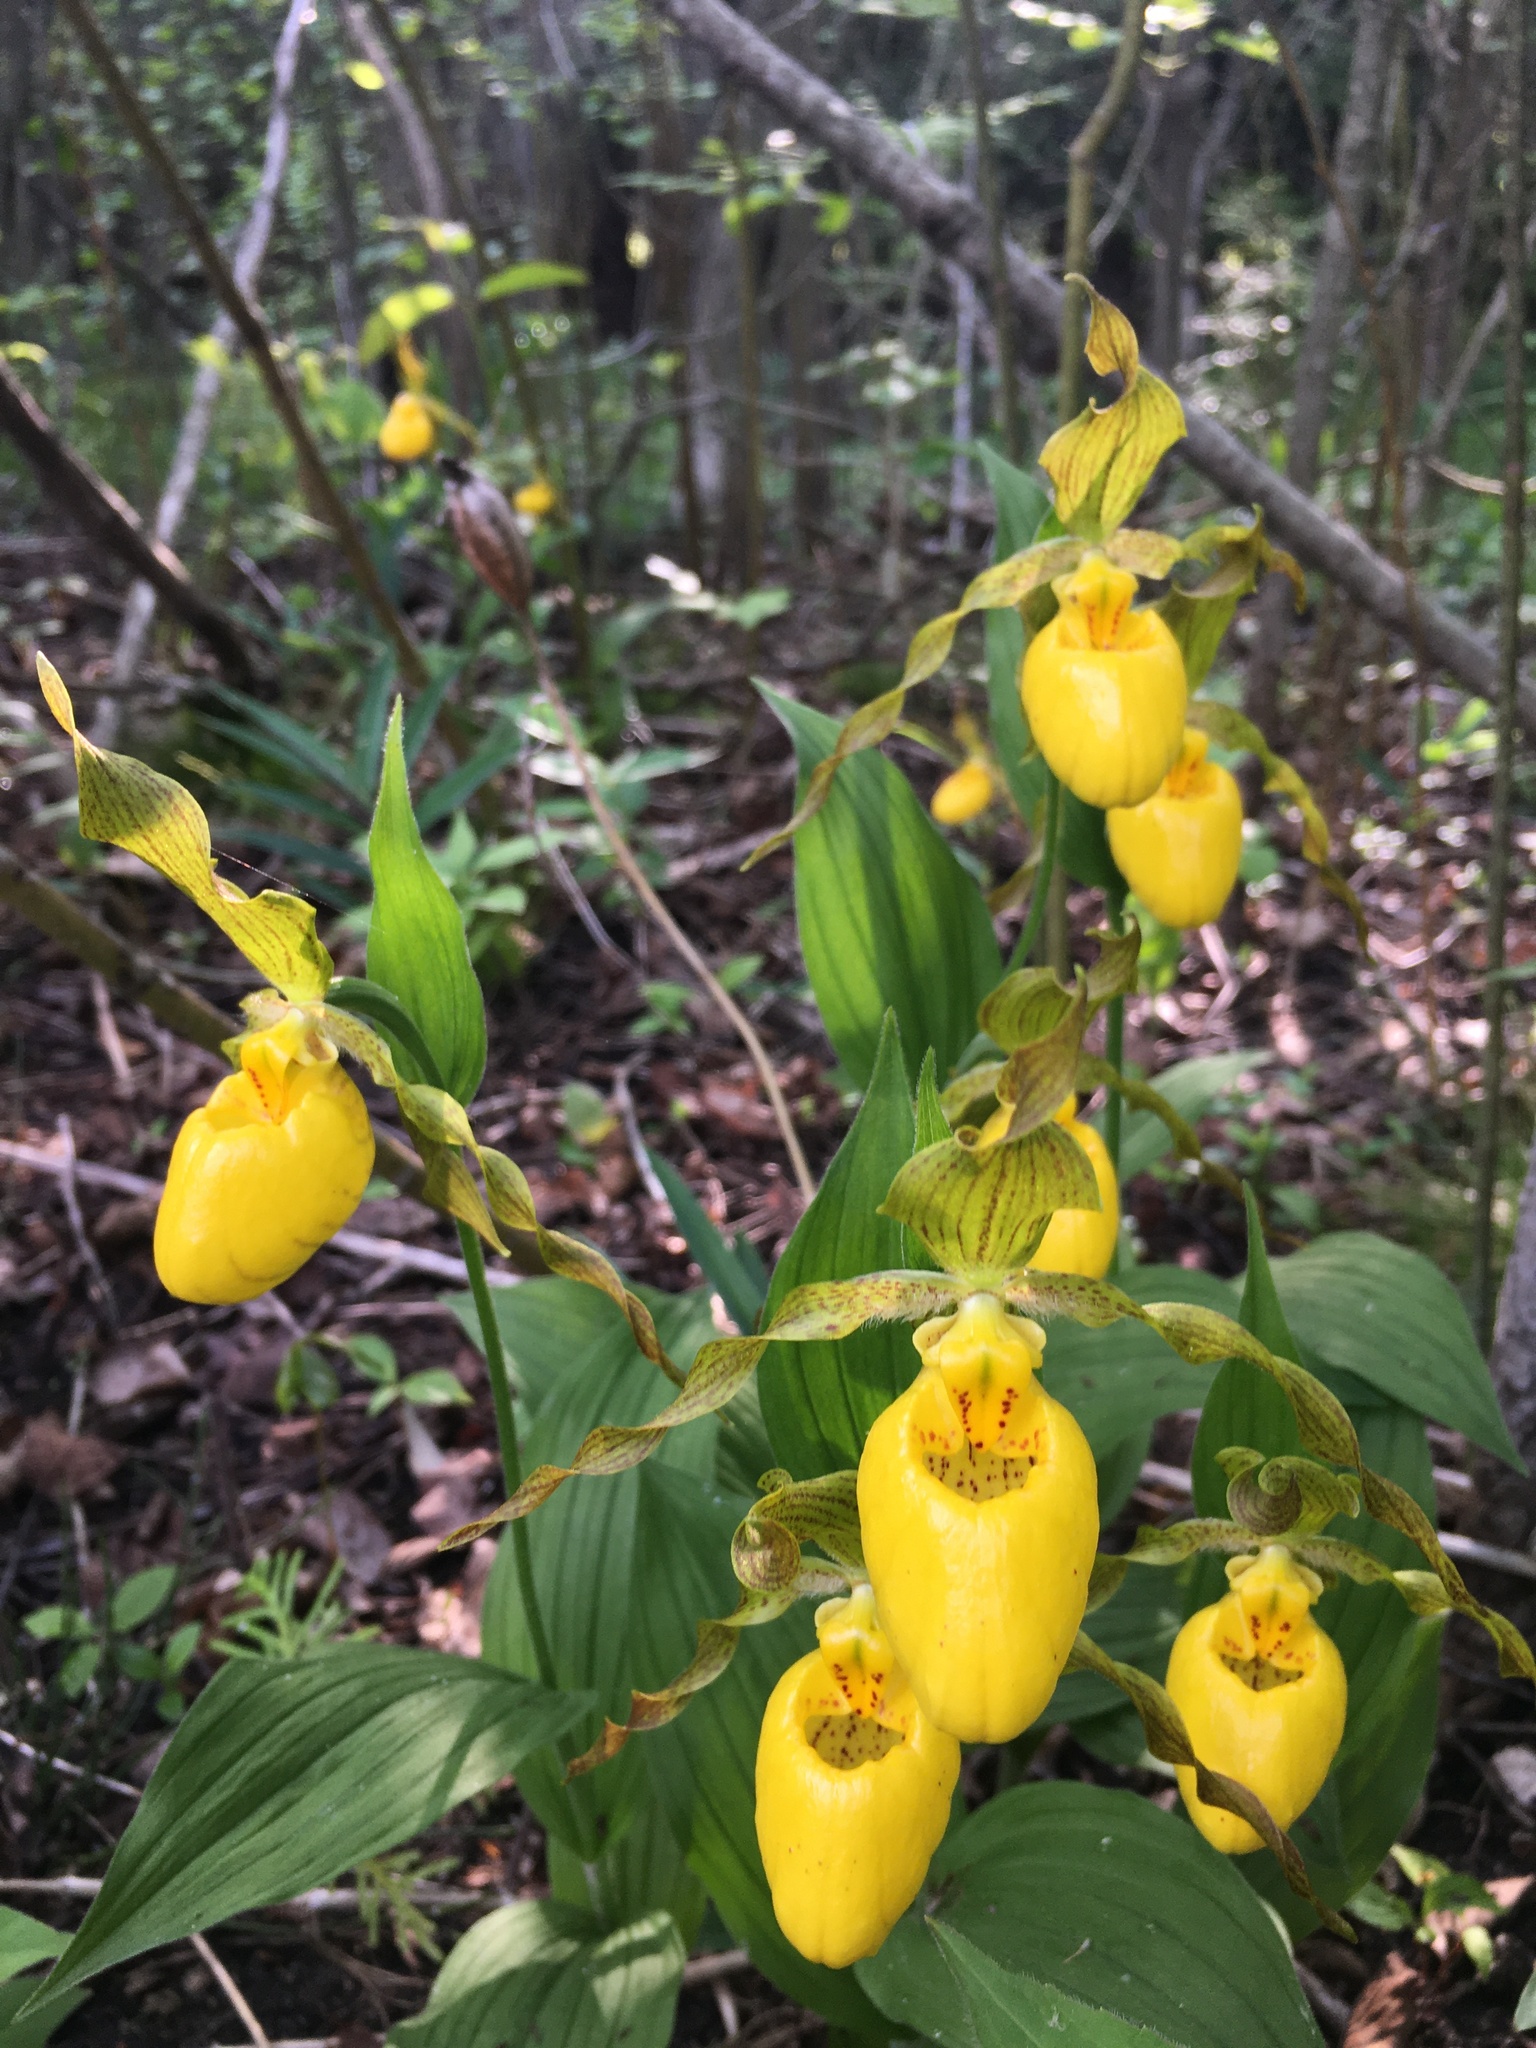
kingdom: Plantae
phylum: Tracheophyta
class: Liliopsida
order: Asparagales
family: Orchidaceae
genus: Cypripedium
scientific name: Cypripedium parviflorum
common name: American yellow lady's-slipper
